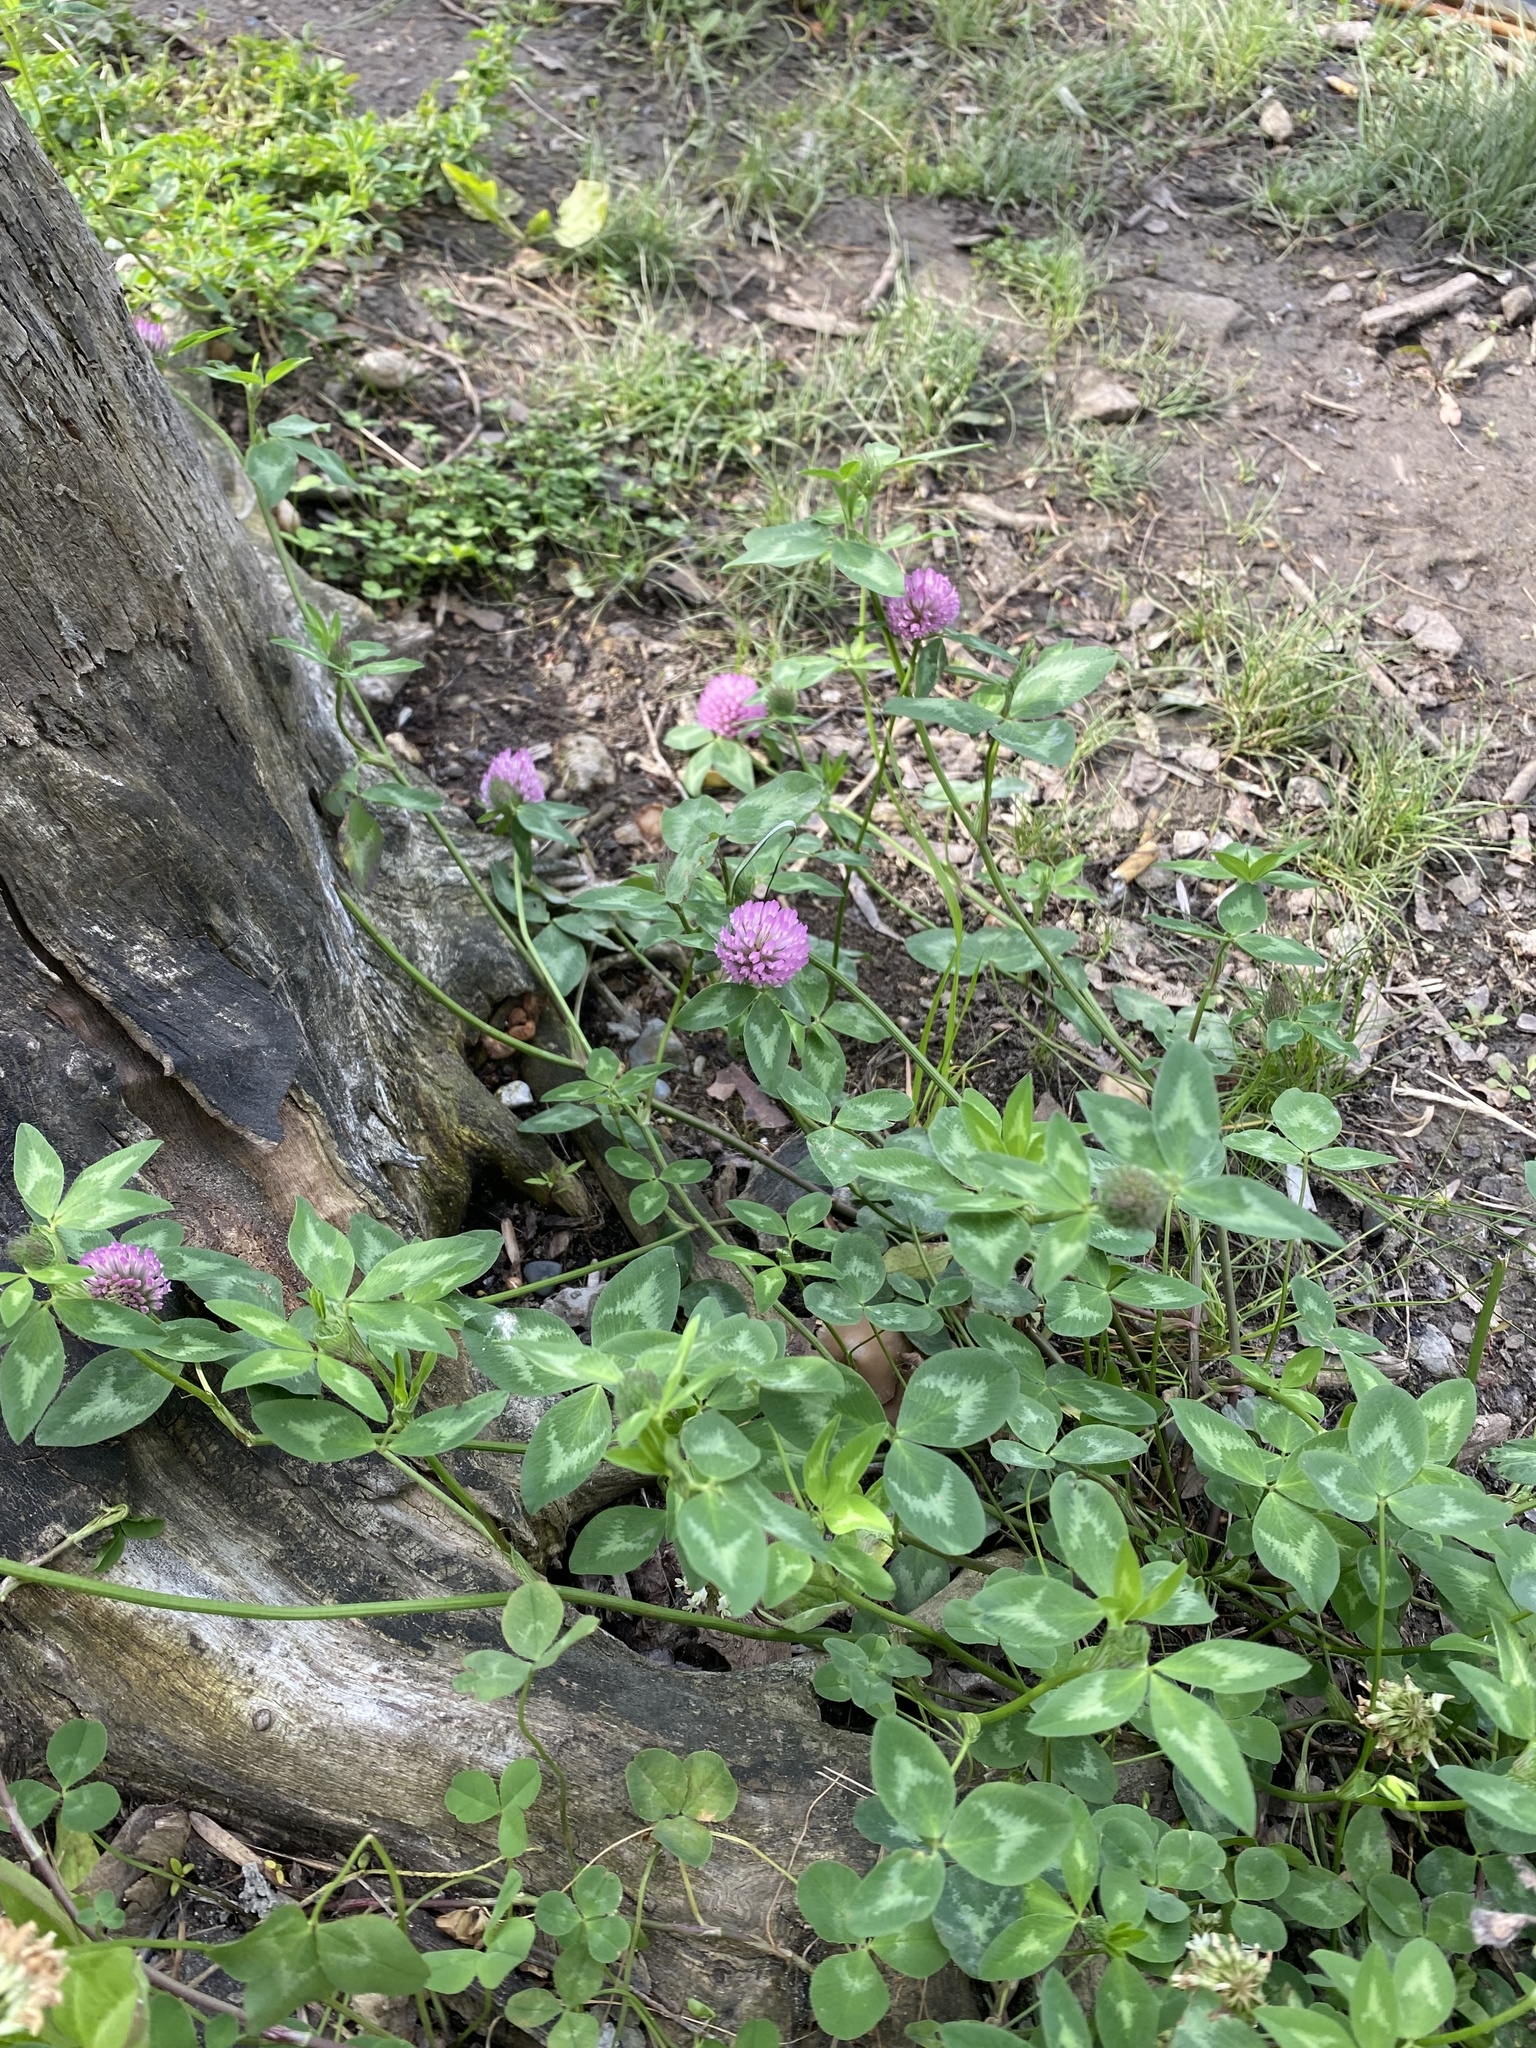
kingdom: Plantae
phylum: Tracheophyta
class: Magnoliopsida
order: Fabales
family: Fabaceae
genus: Trifolium
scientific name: Trifolium pratense
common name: Red clover
